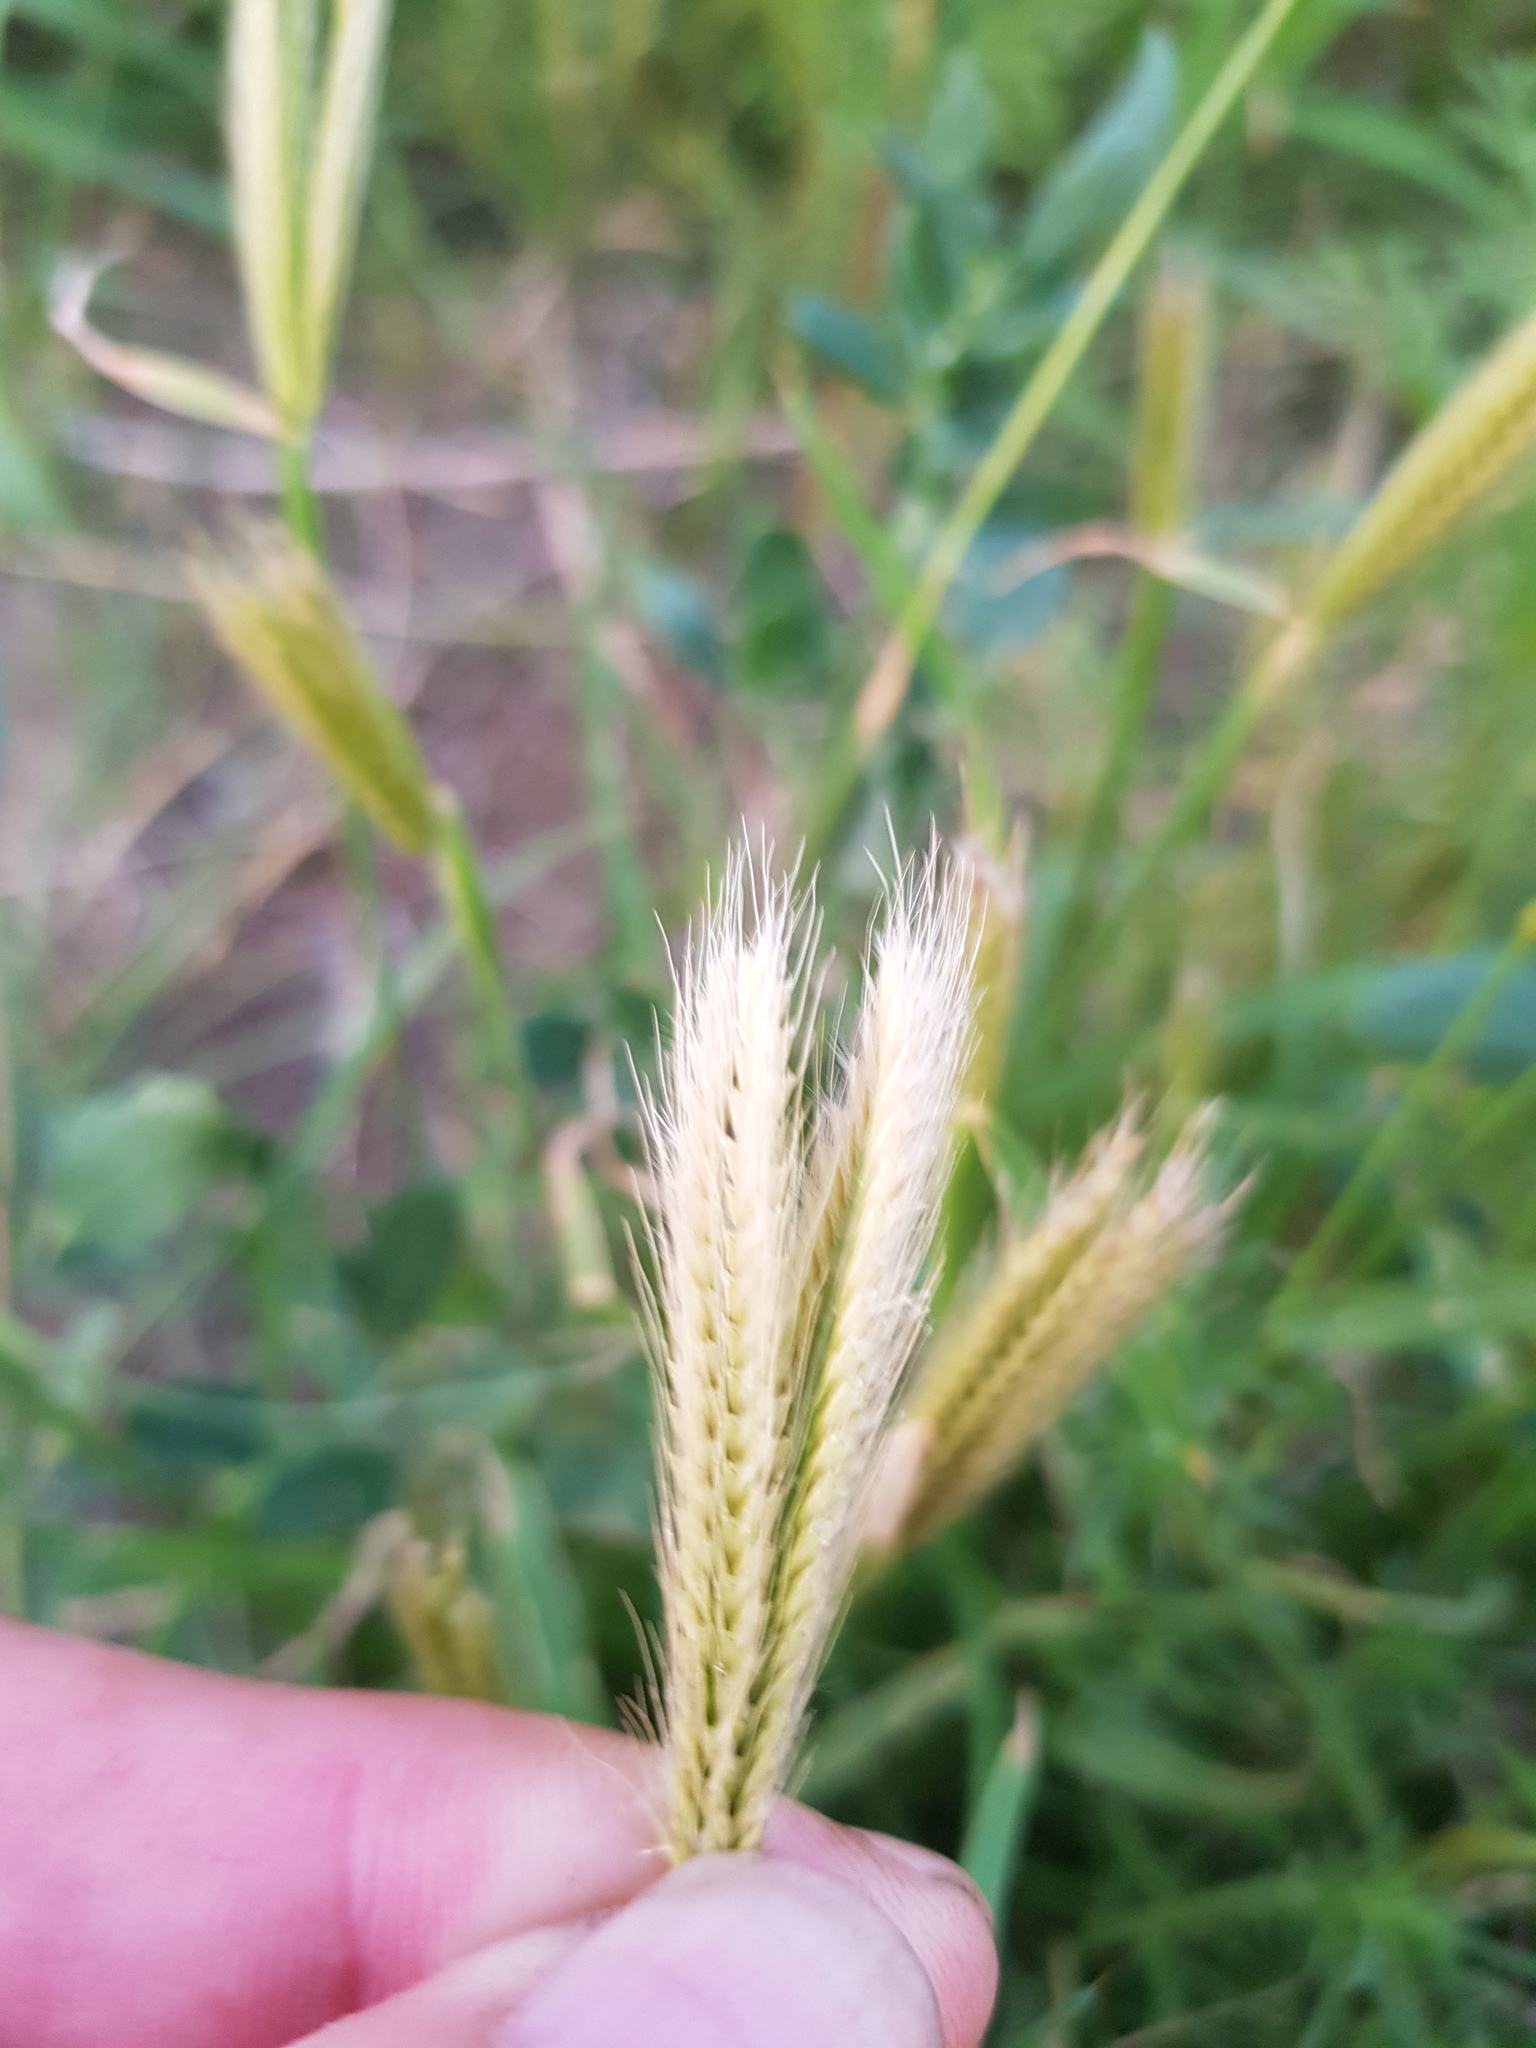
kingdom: Plantae
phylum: Tracheophyta
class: Liliopsida
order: Poales
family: Poaceae
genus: Chloris
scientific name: Chloris virgata
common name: Feathery rhodes-grass
